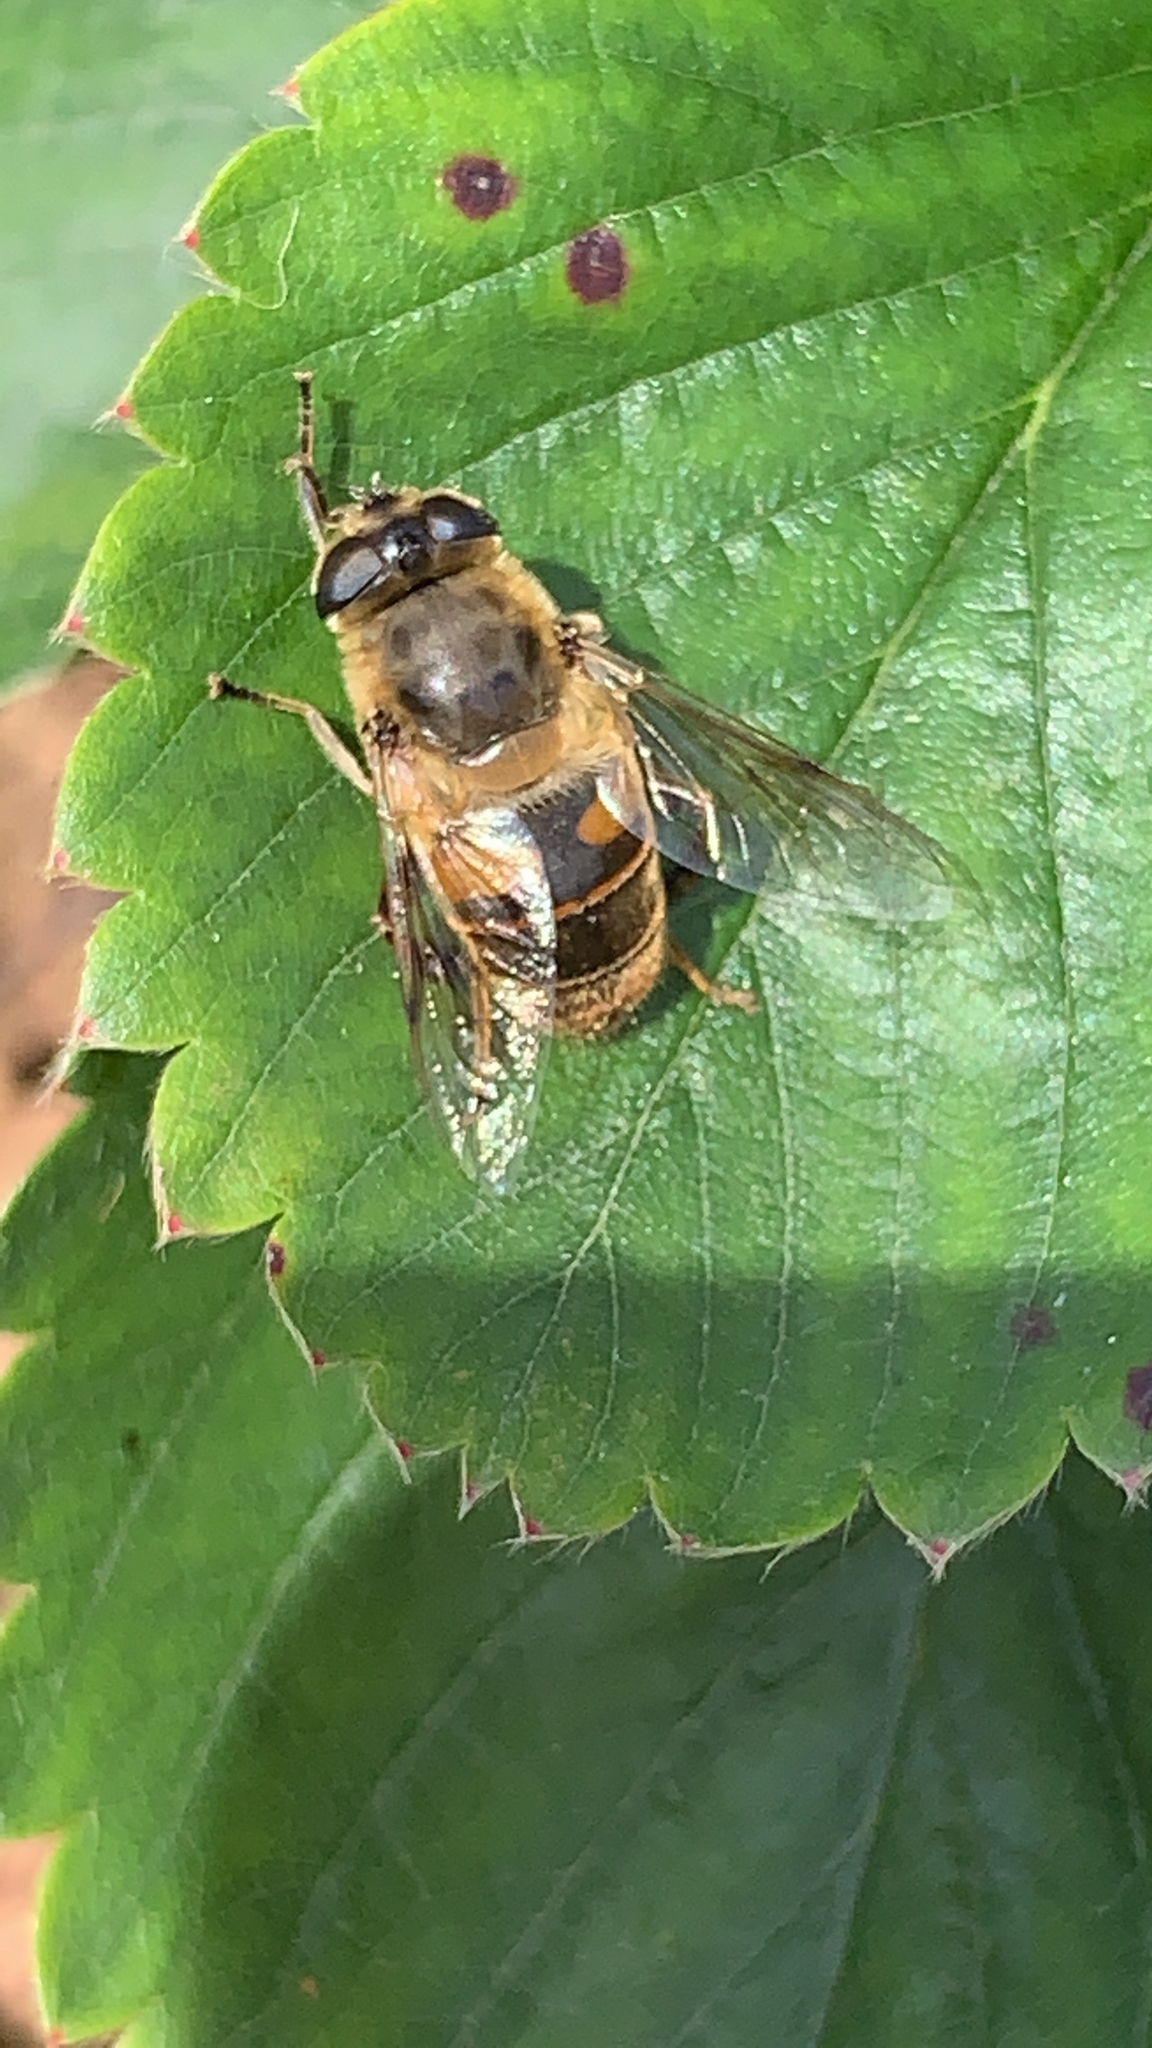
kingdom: Animalia
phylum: Arthropoda
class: Insecta
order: Diptera
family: Syrphidae
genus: Eristalis
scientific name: Eristalis tenax
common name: Drone fly
